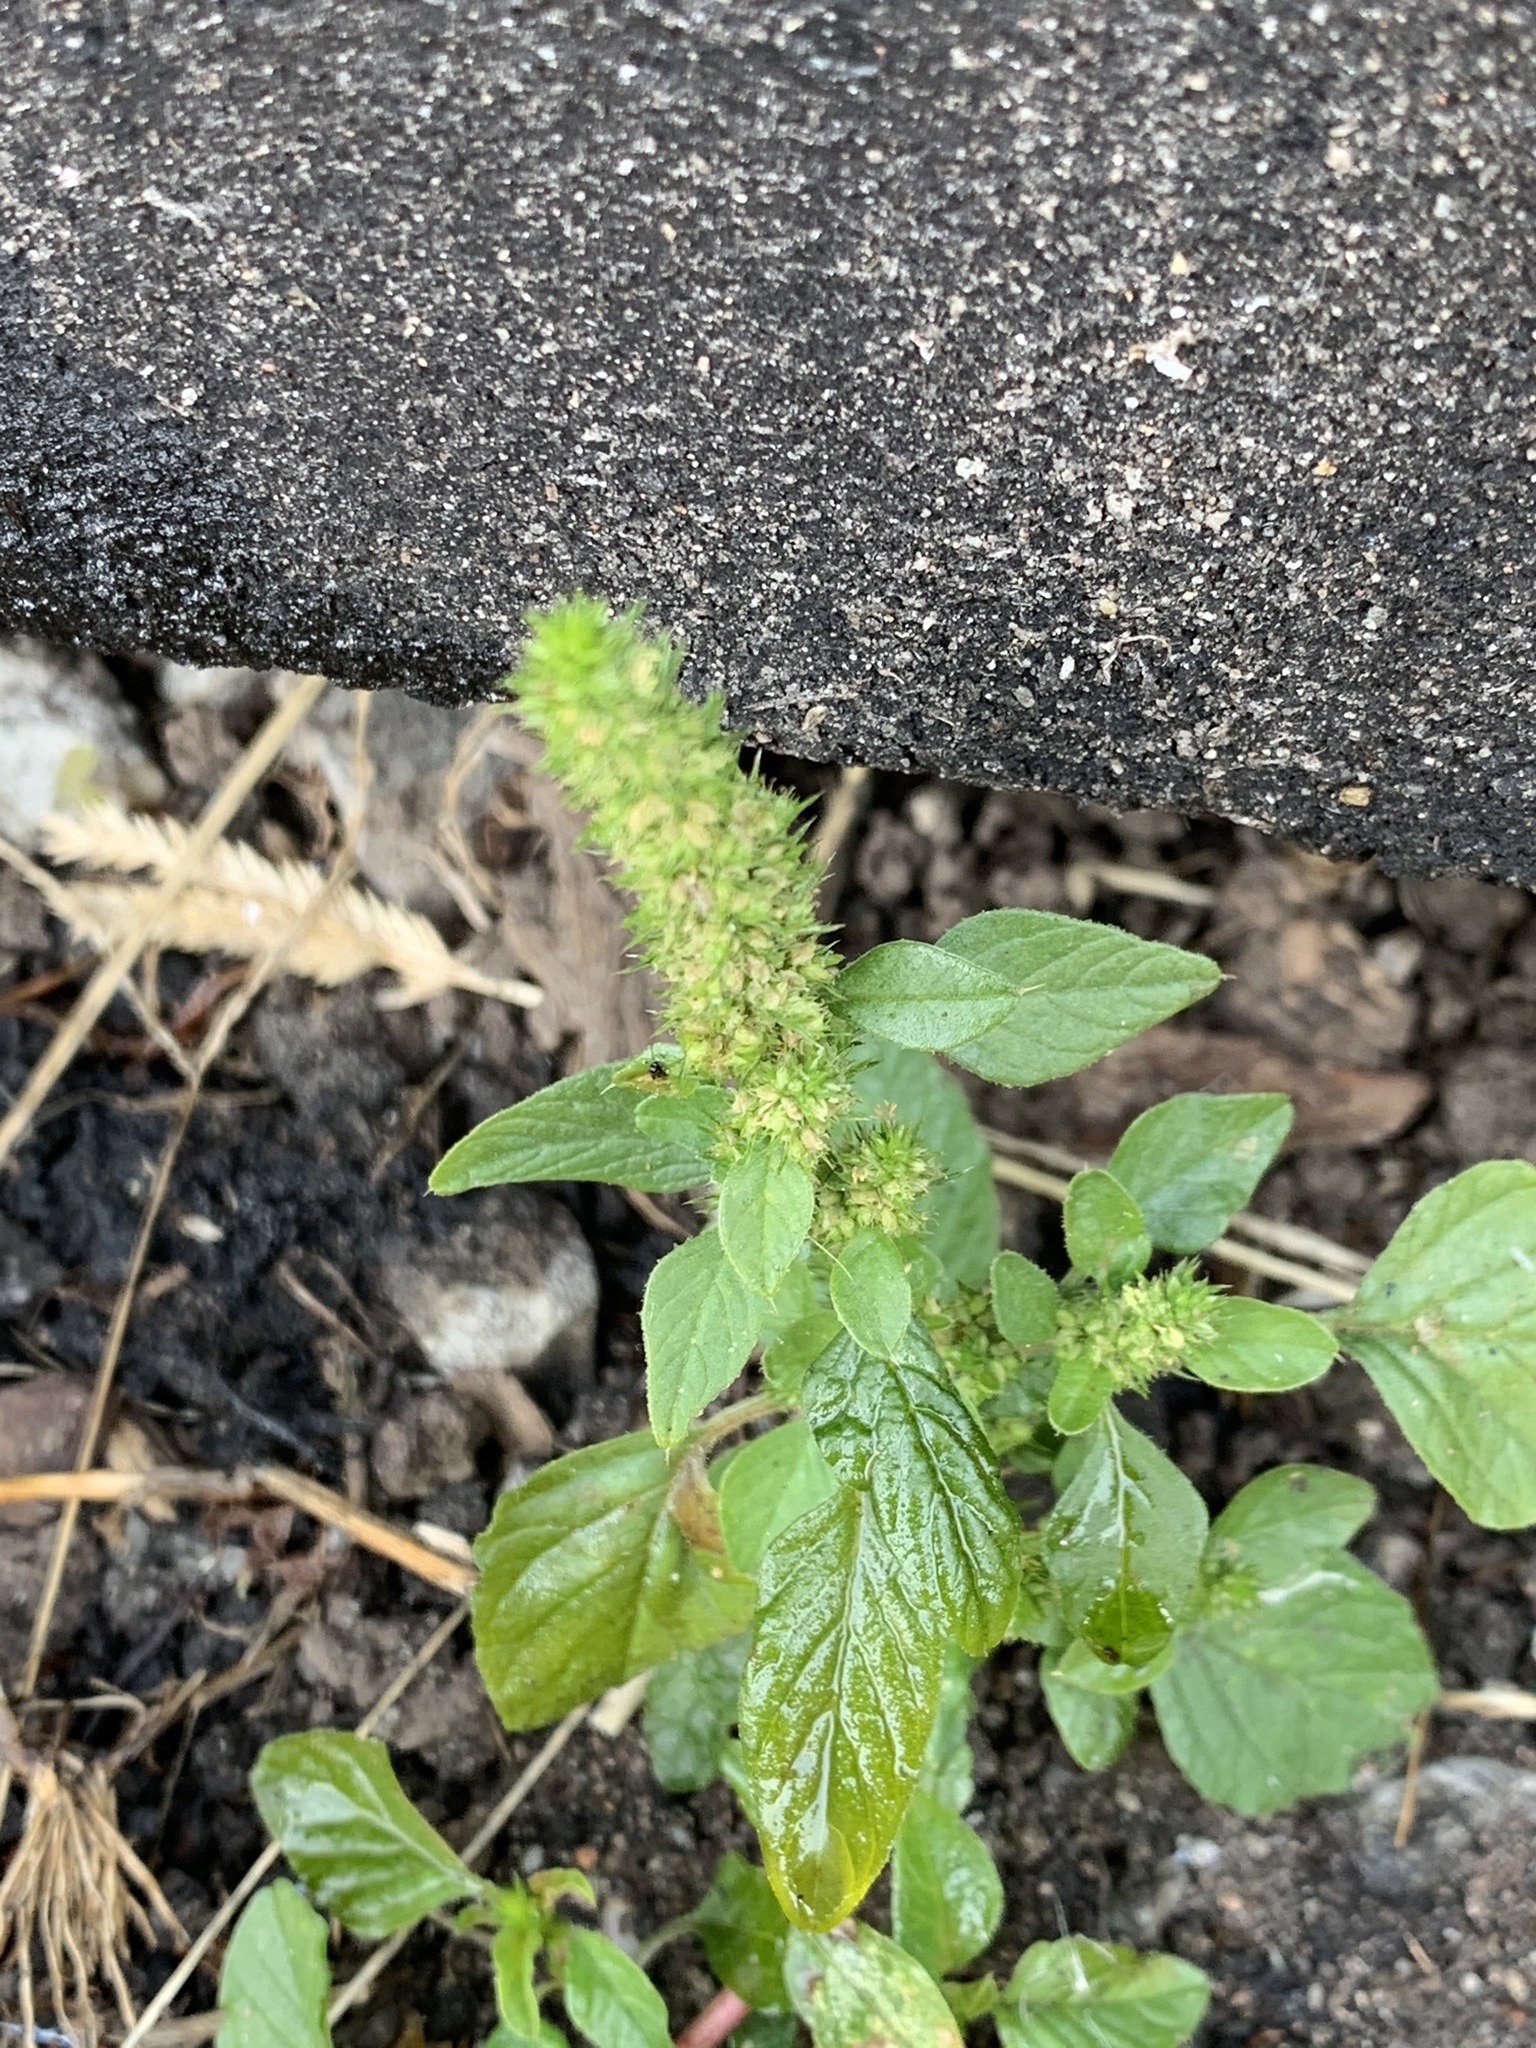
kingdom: Plantae
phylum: Tracheophyta
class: Magnoliopsida
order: Caryophyllales
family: Amaranthaceae
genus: Amaranthus
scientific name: Amaranthus retroflexus
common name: Redroot amaranth
